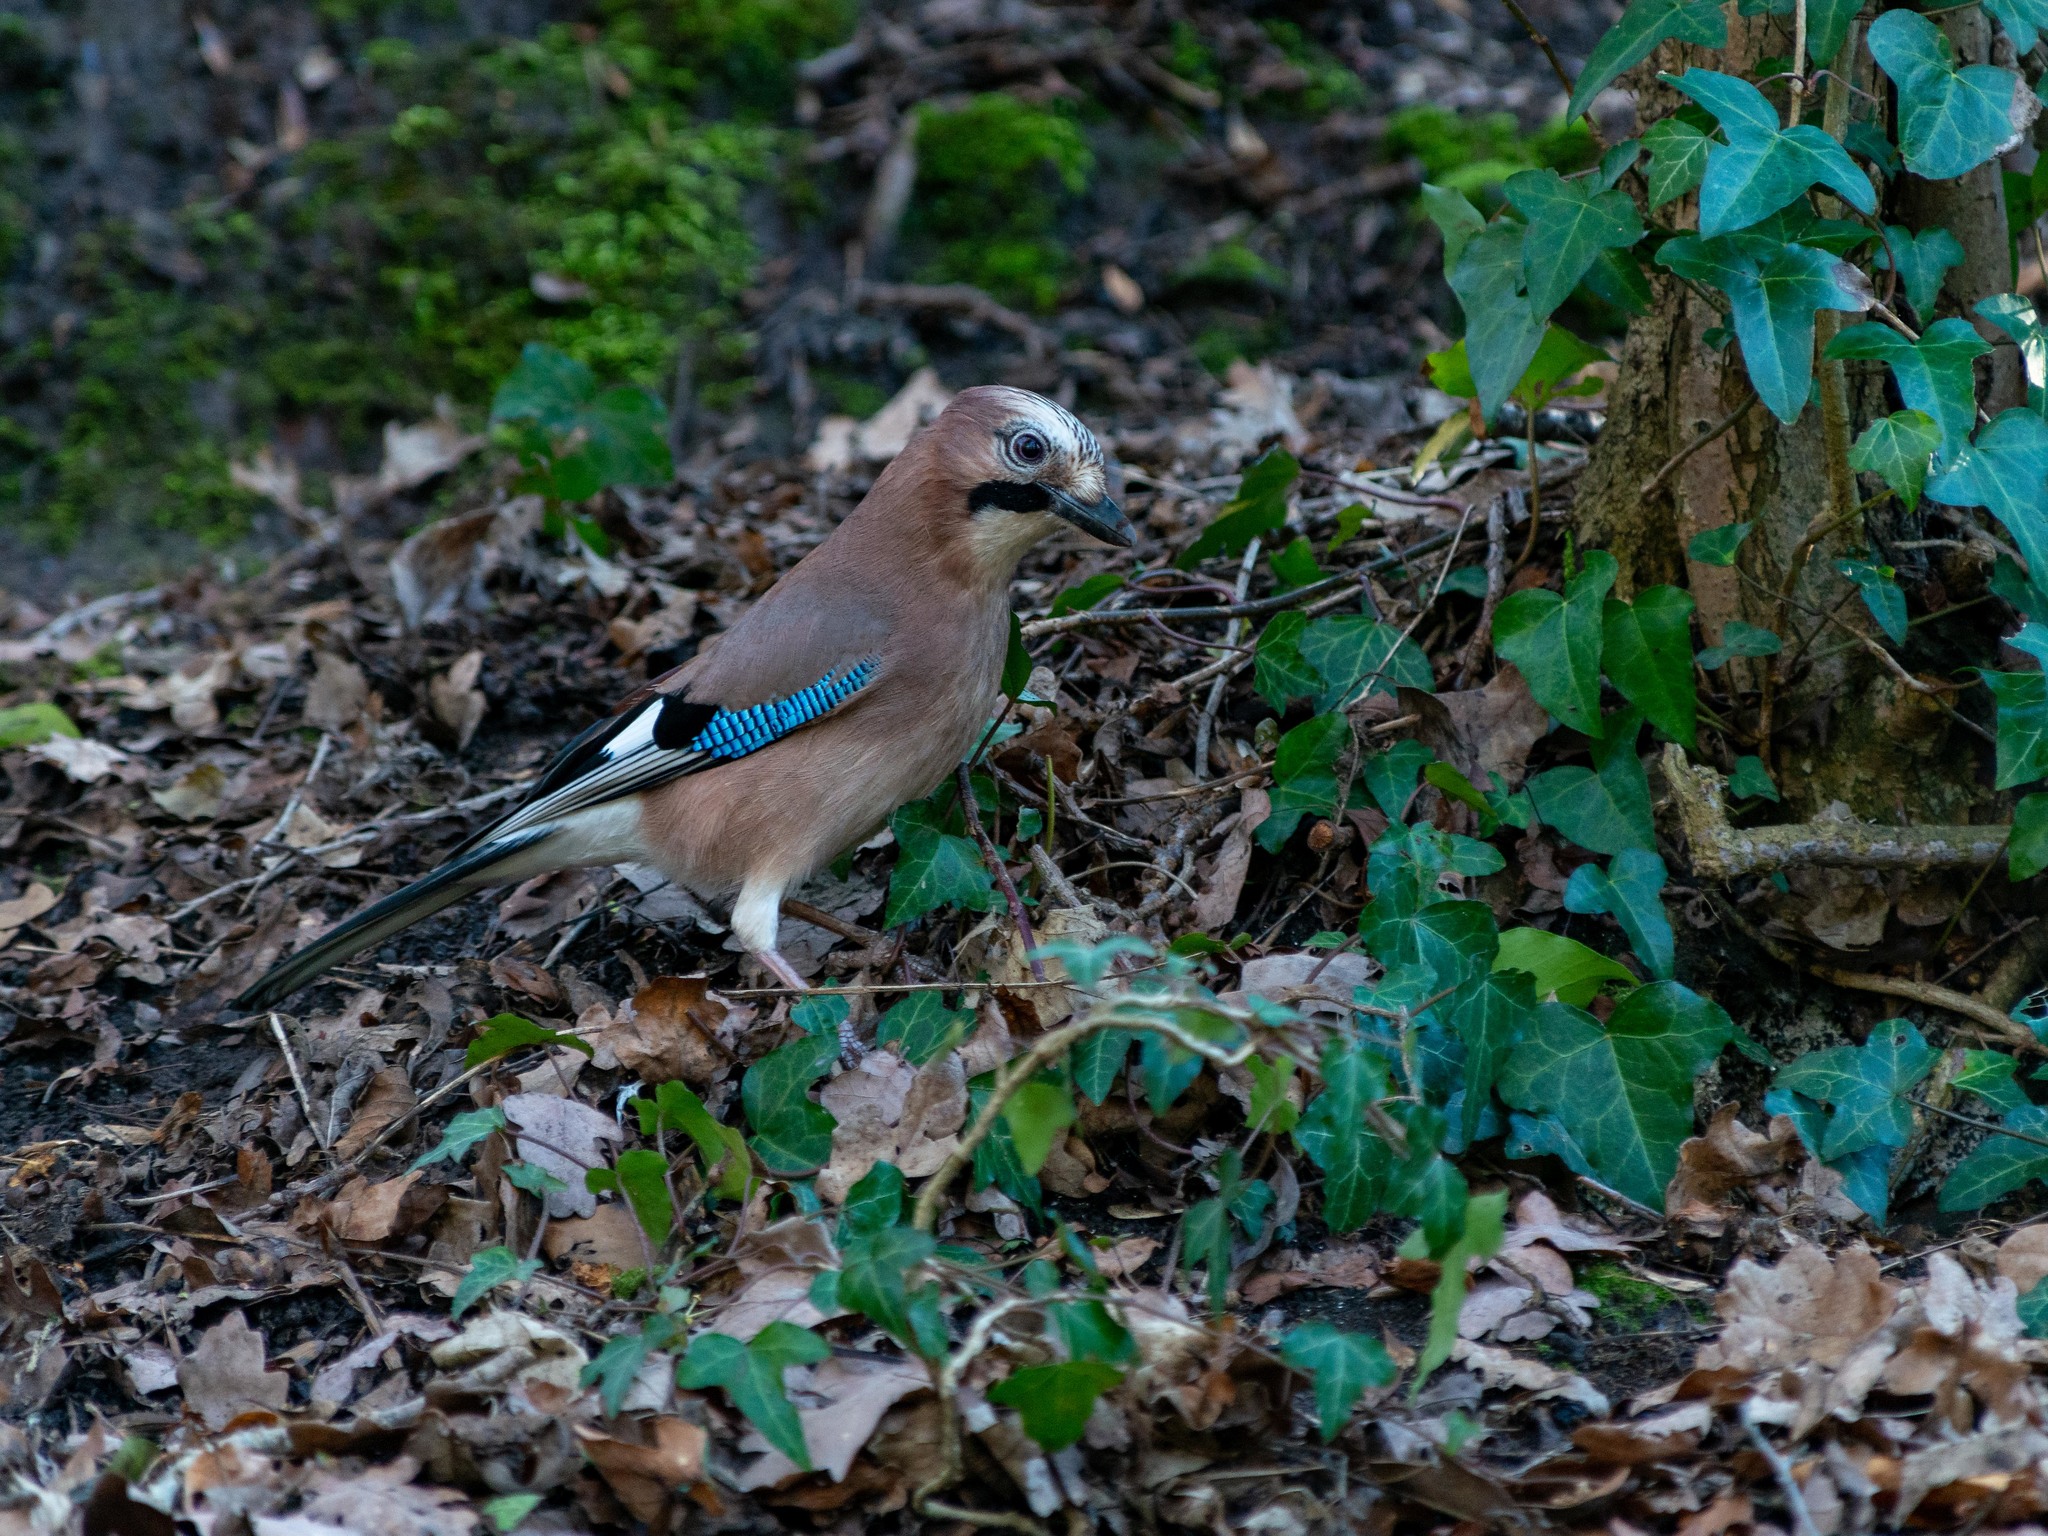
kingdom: Animalia
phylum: Chordata
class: Aves
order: Passeriformes
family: Corvidae
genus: Garrulus
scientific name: Garrulus glandarius
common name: Eurasian jay
